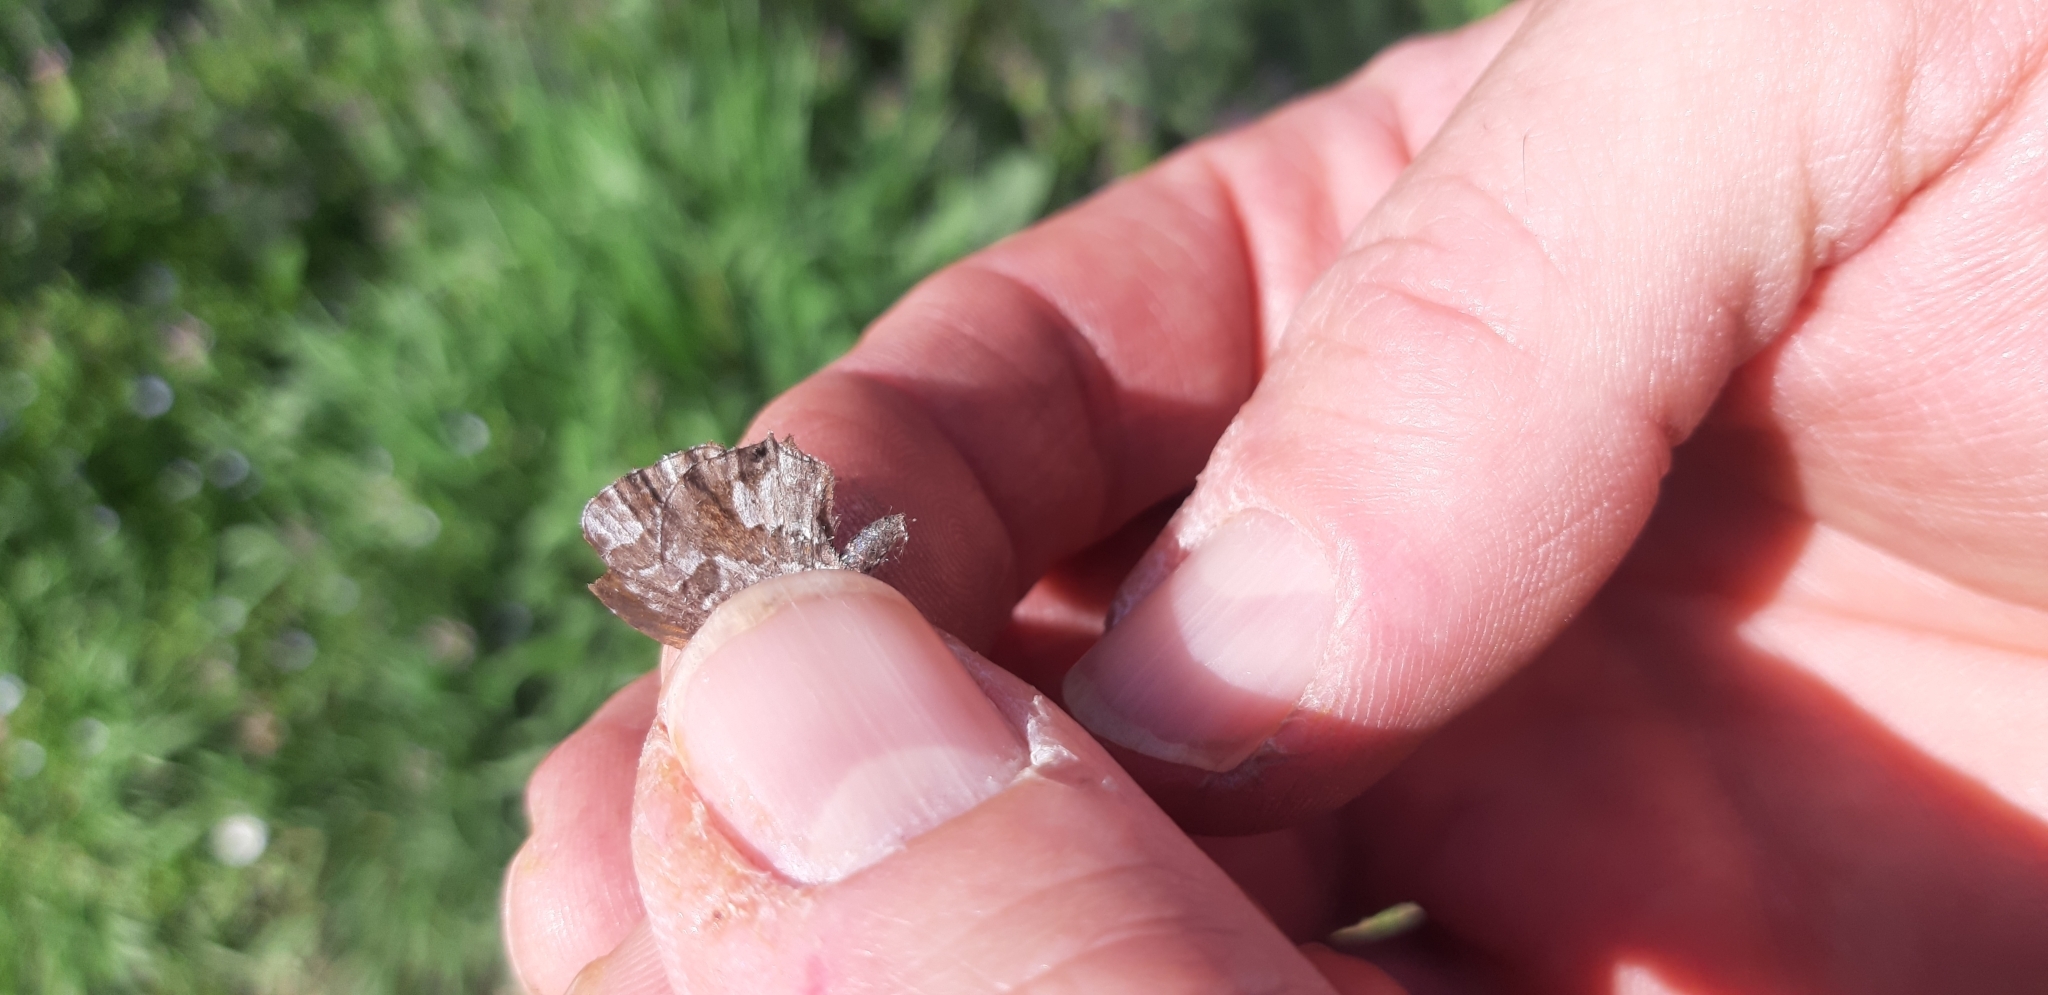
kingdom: Animalia
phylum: Arthropoda
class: Insecta
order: Lepidoptera
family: Lycaenidae
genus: Cacyreus
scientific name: Cacyreus marshalli
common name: Geranium bronze
